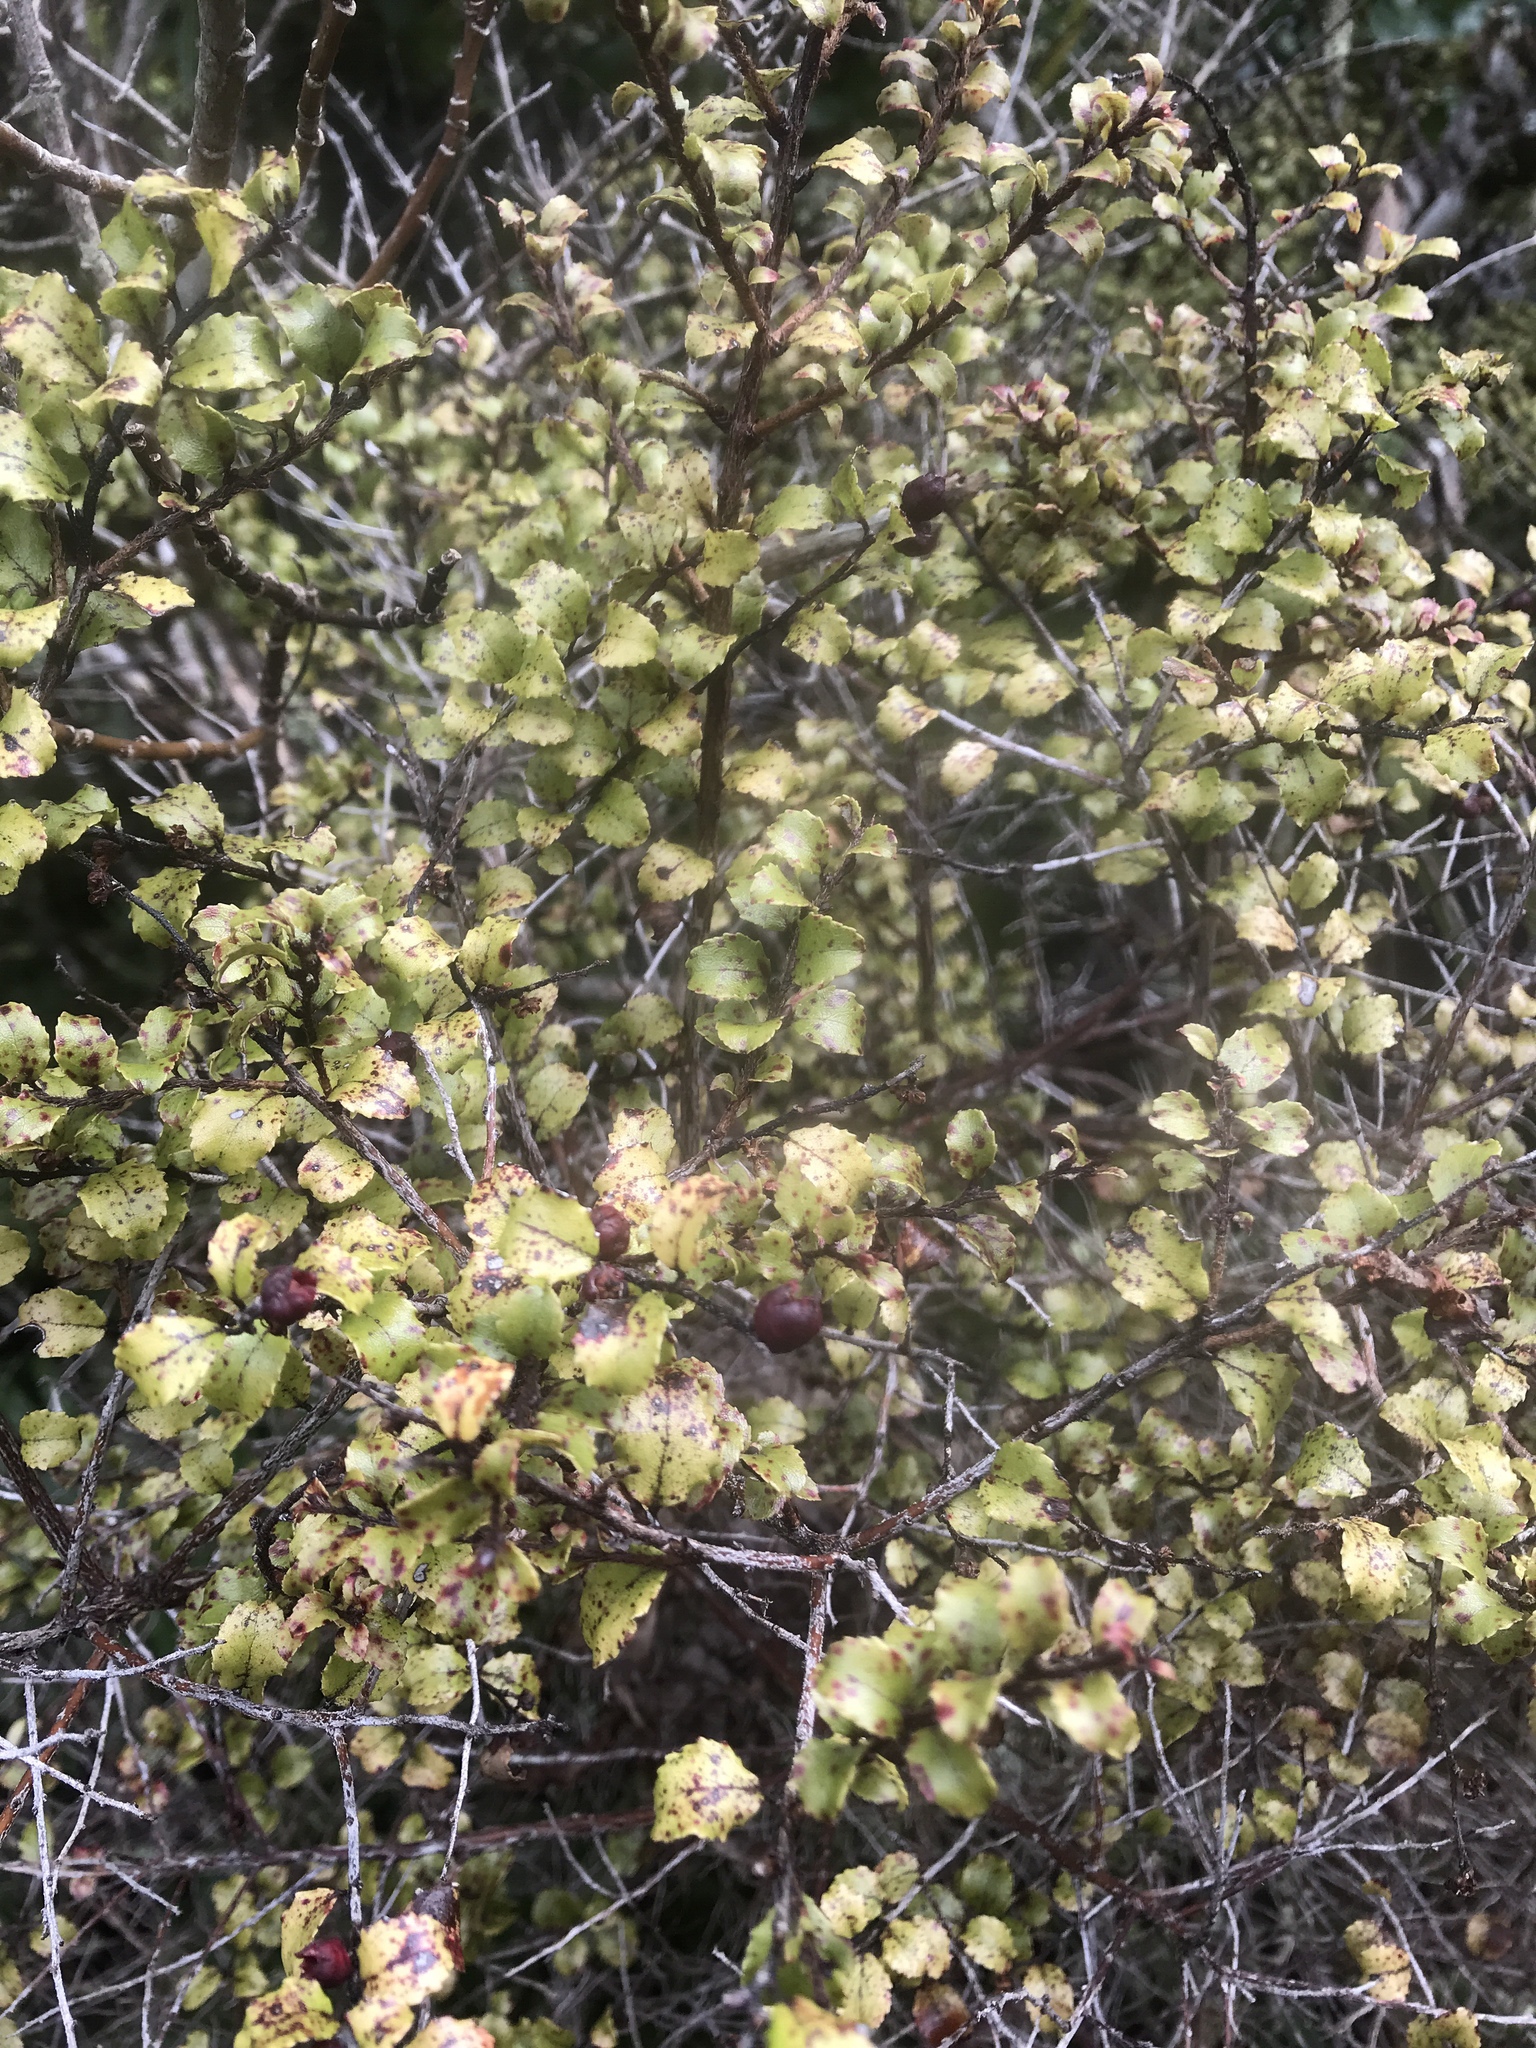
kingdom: Plantae
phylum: Tracheophyta
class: Magnoliopsida
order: Ericales
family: Ericaceae
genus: Gaultheria
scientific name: Gaultheria antipoda
